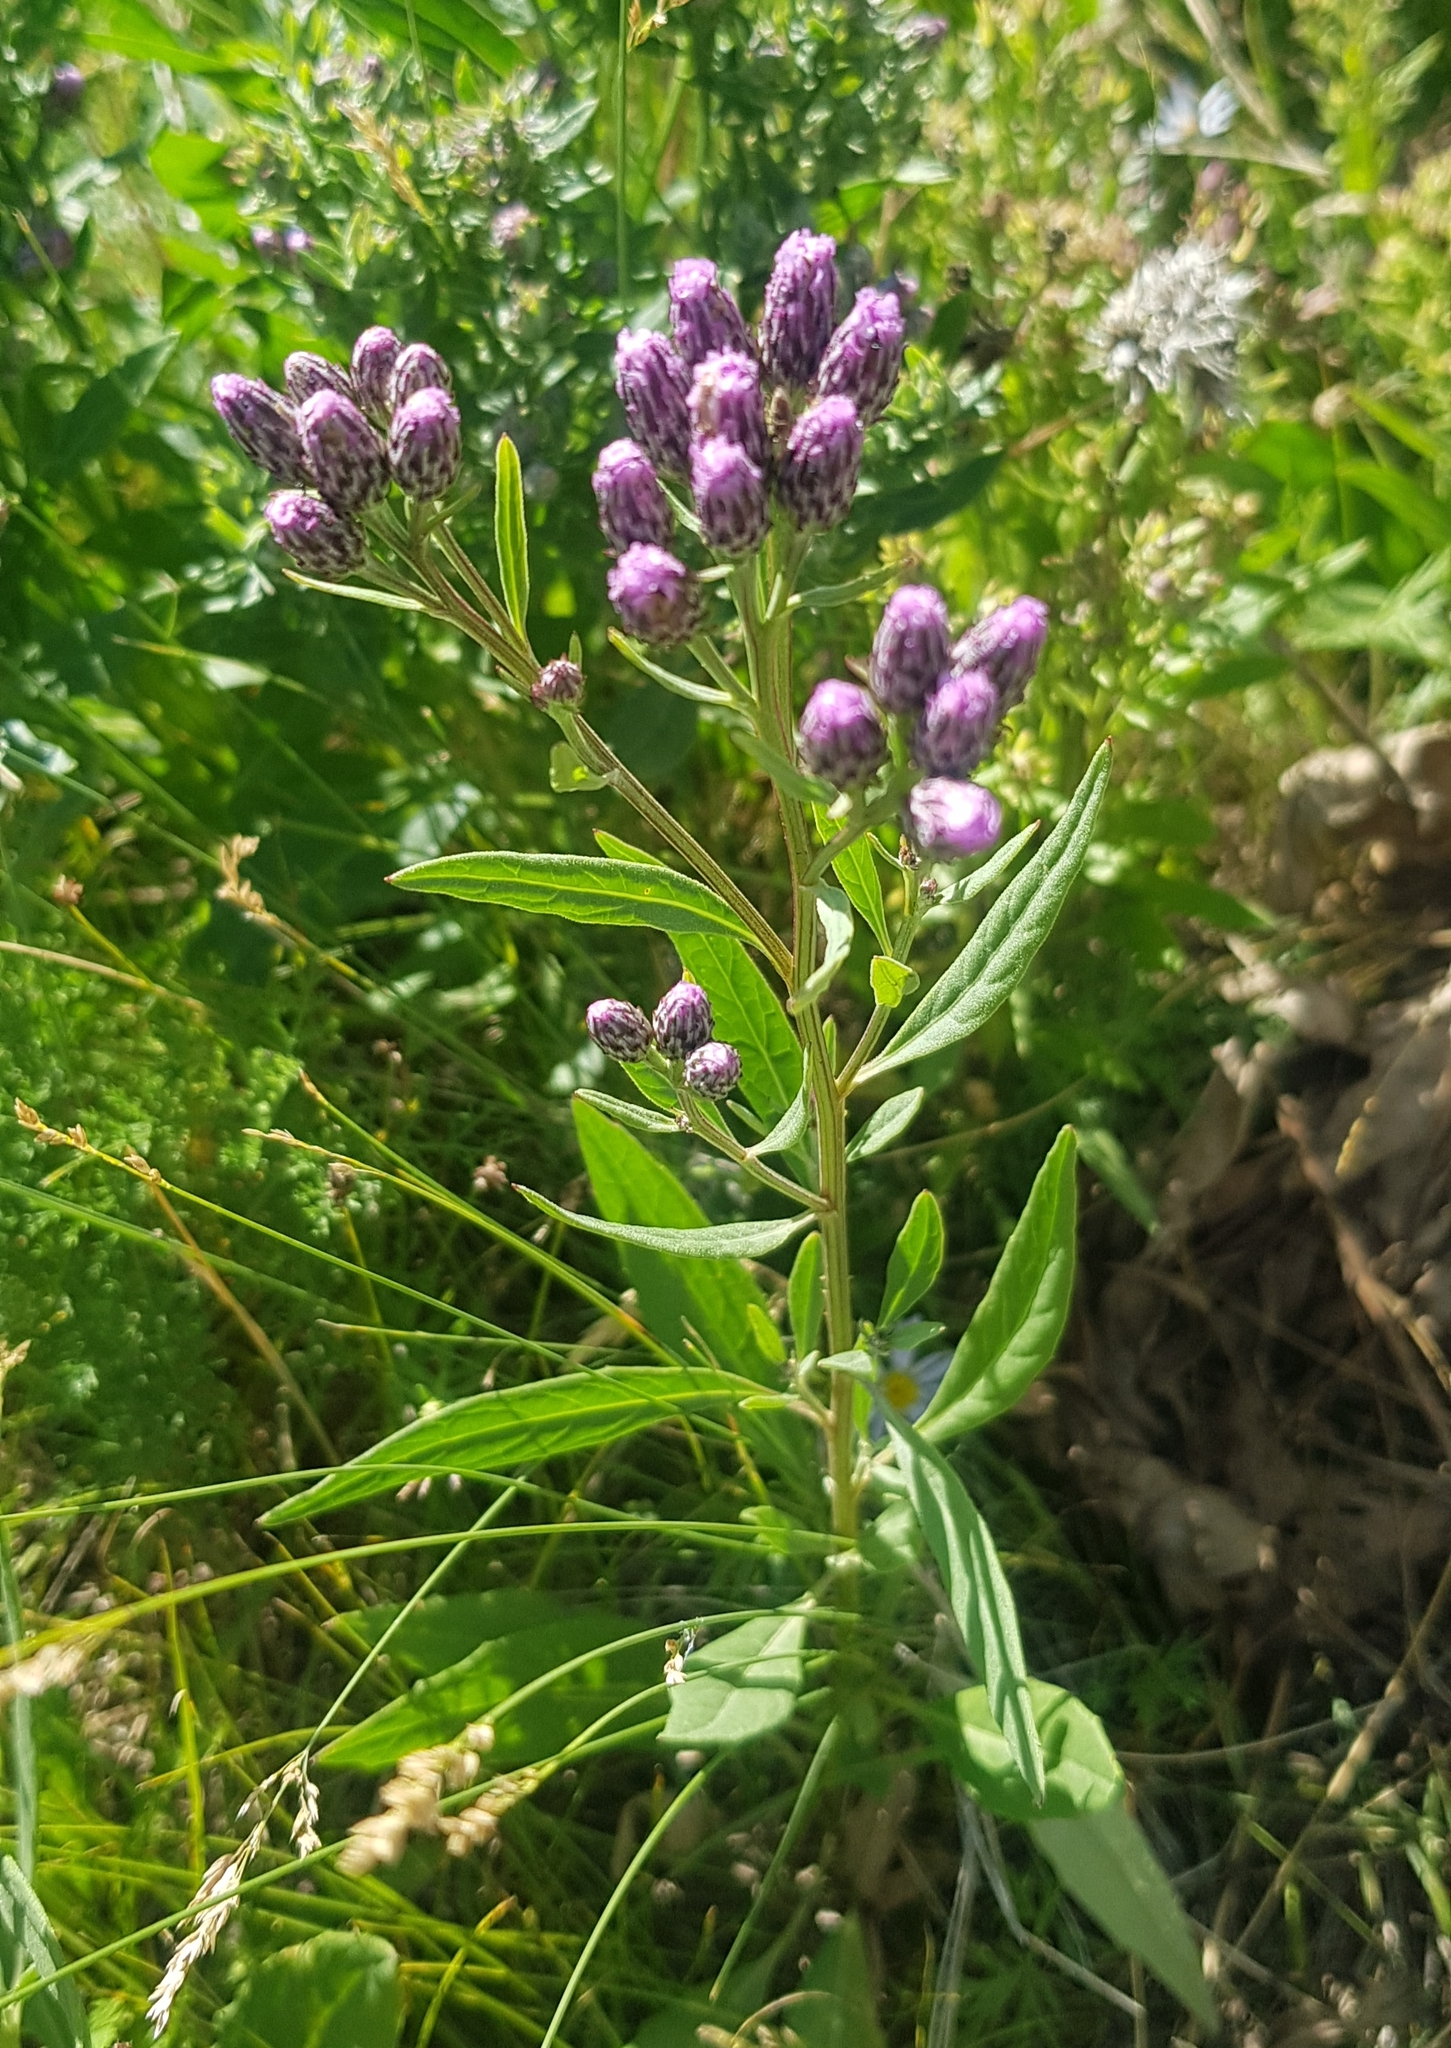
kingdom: Plantae
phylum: Tracheophyta
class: Magnoliopsida
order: Asterales
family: Asteraceae
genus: Saussurea
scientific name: Saussurea salicifolia
